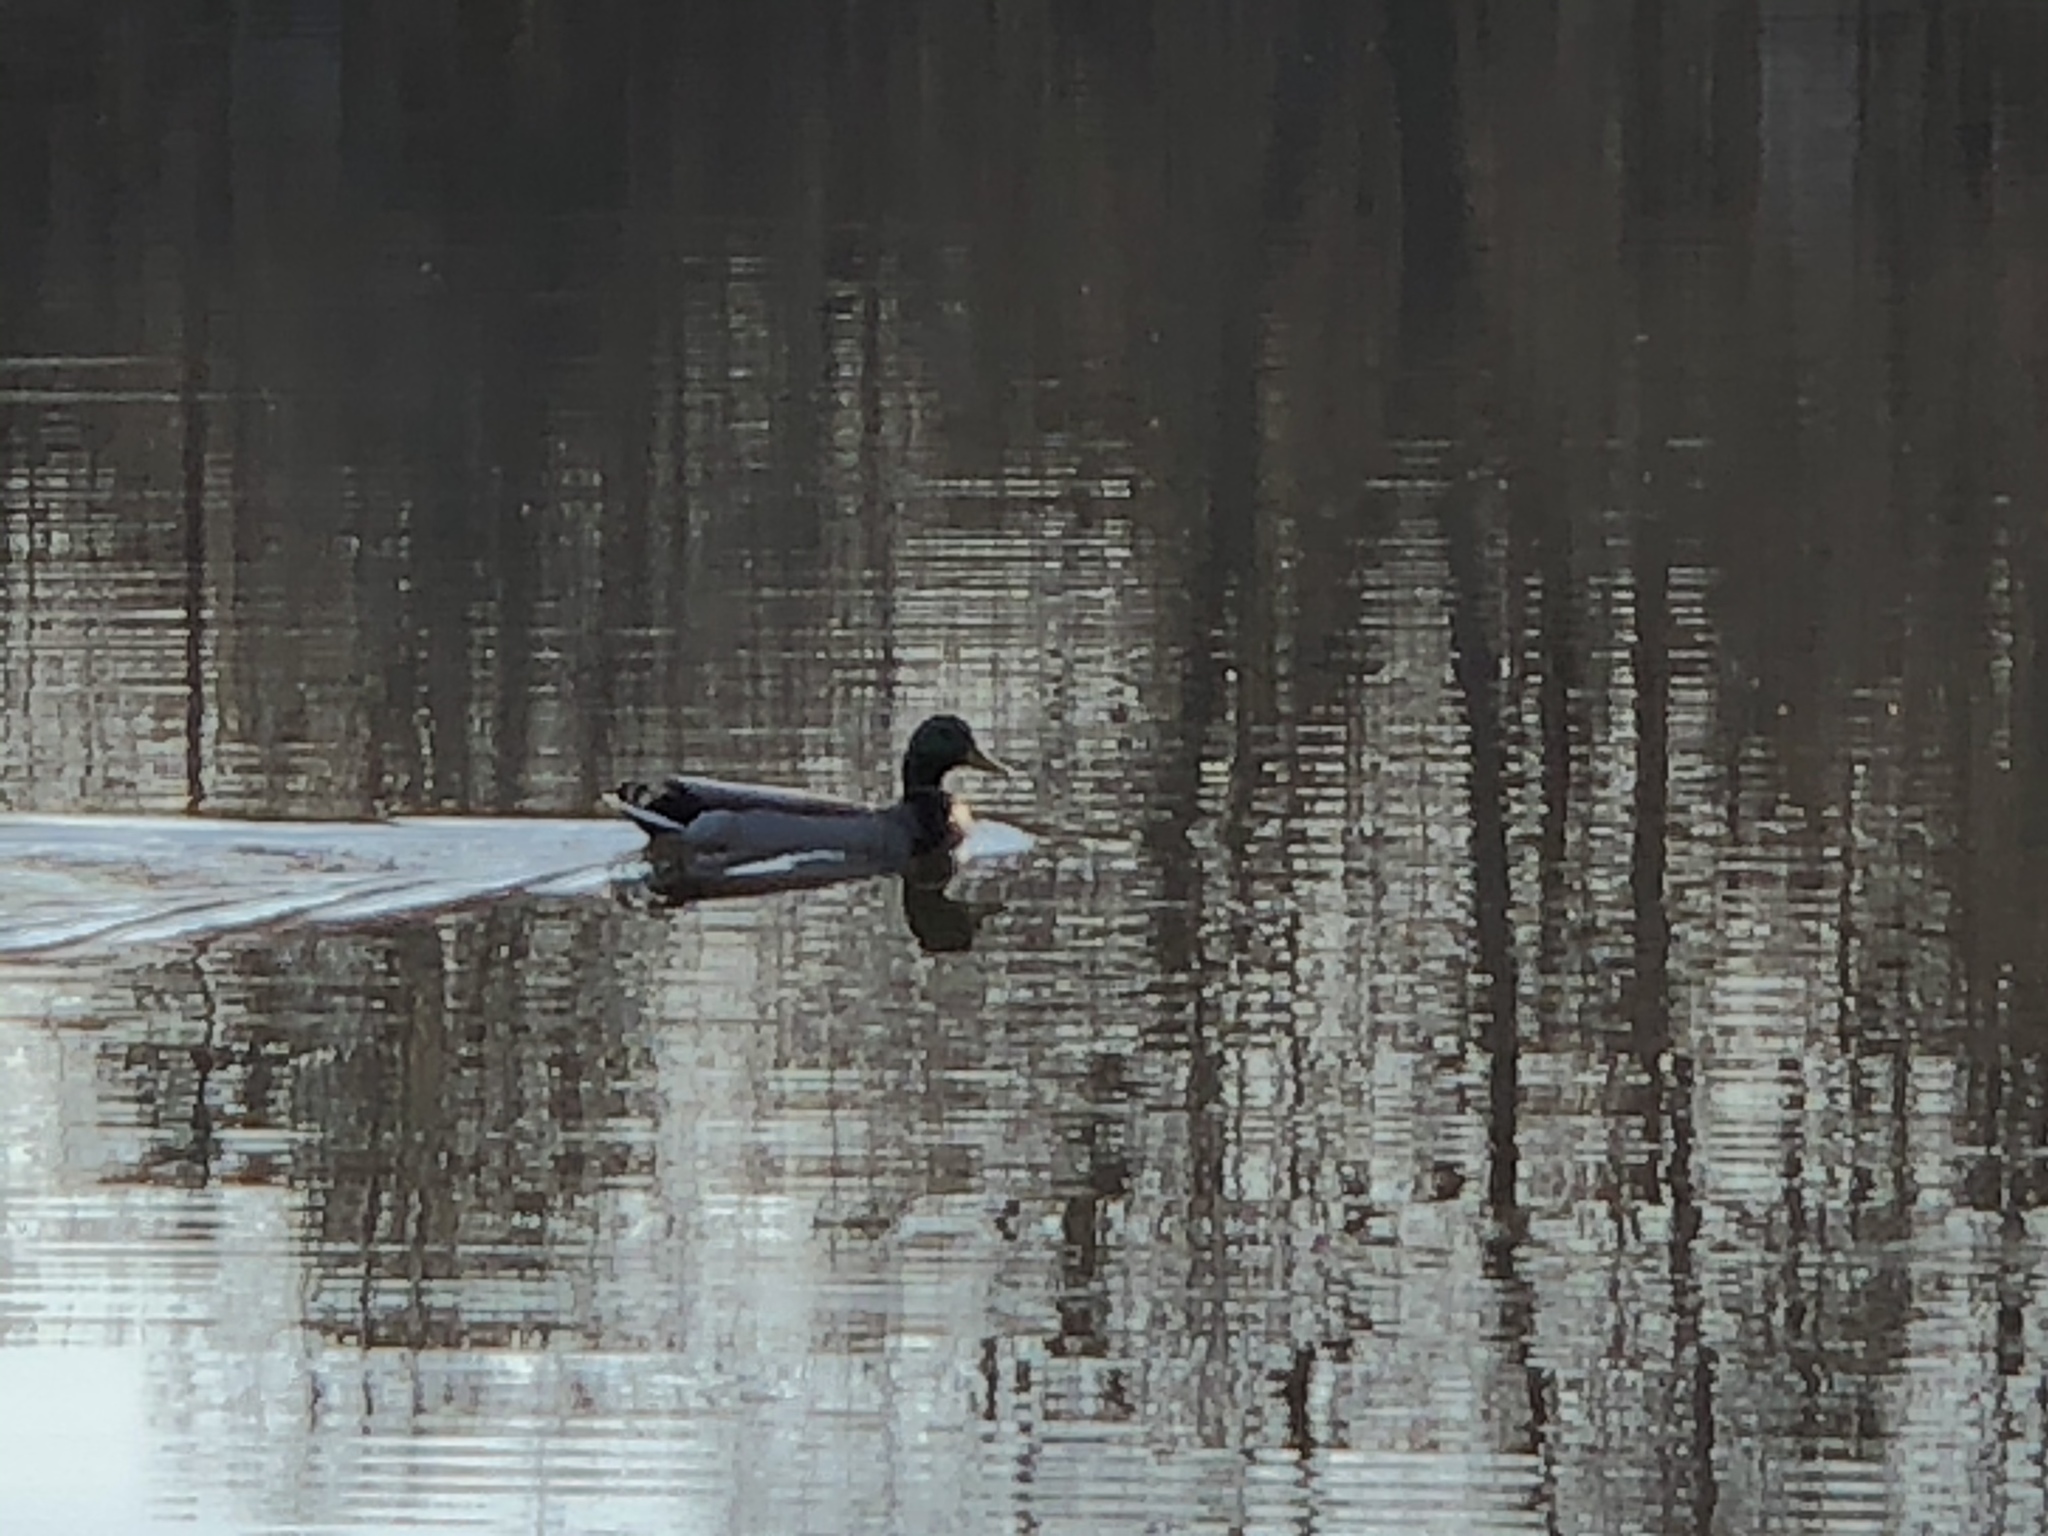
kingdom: Animalia
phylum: Chordata
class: Aves
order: Anseriformes
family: Anatidae
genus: Anas
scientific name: Anas platyrhynchos
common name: Mallard
